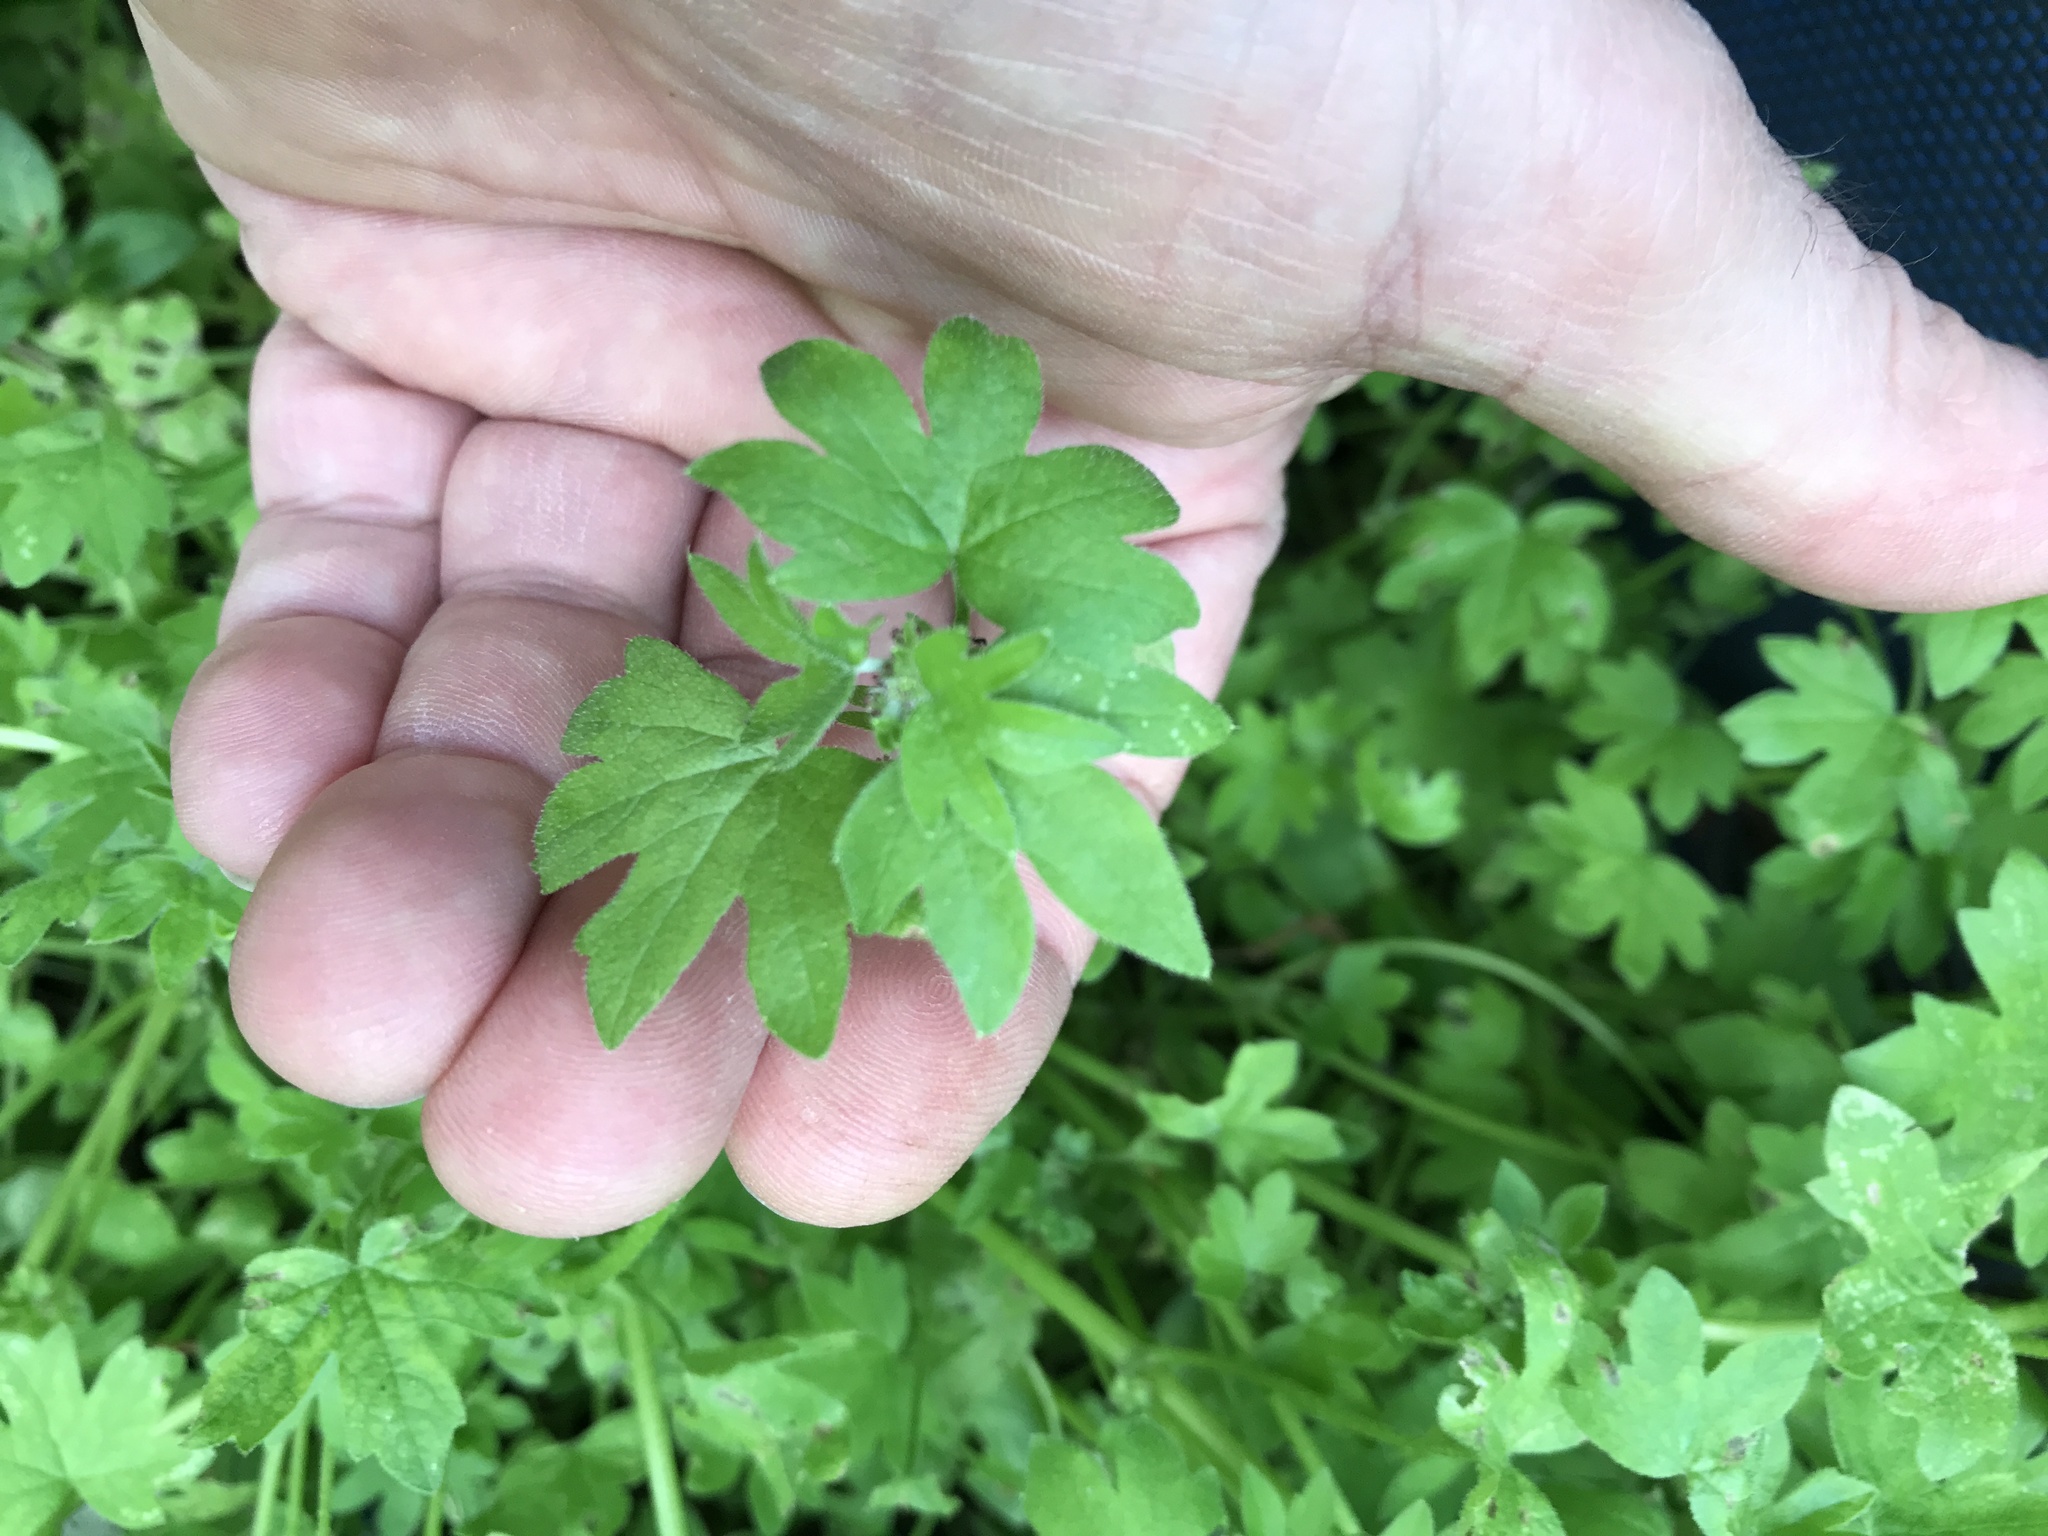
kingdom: Plantae
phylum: Tracheophyta
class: Magnoliopsida
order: Apiales
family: Apiaceae
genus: Bowlesia
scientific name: Bowlesia incana
